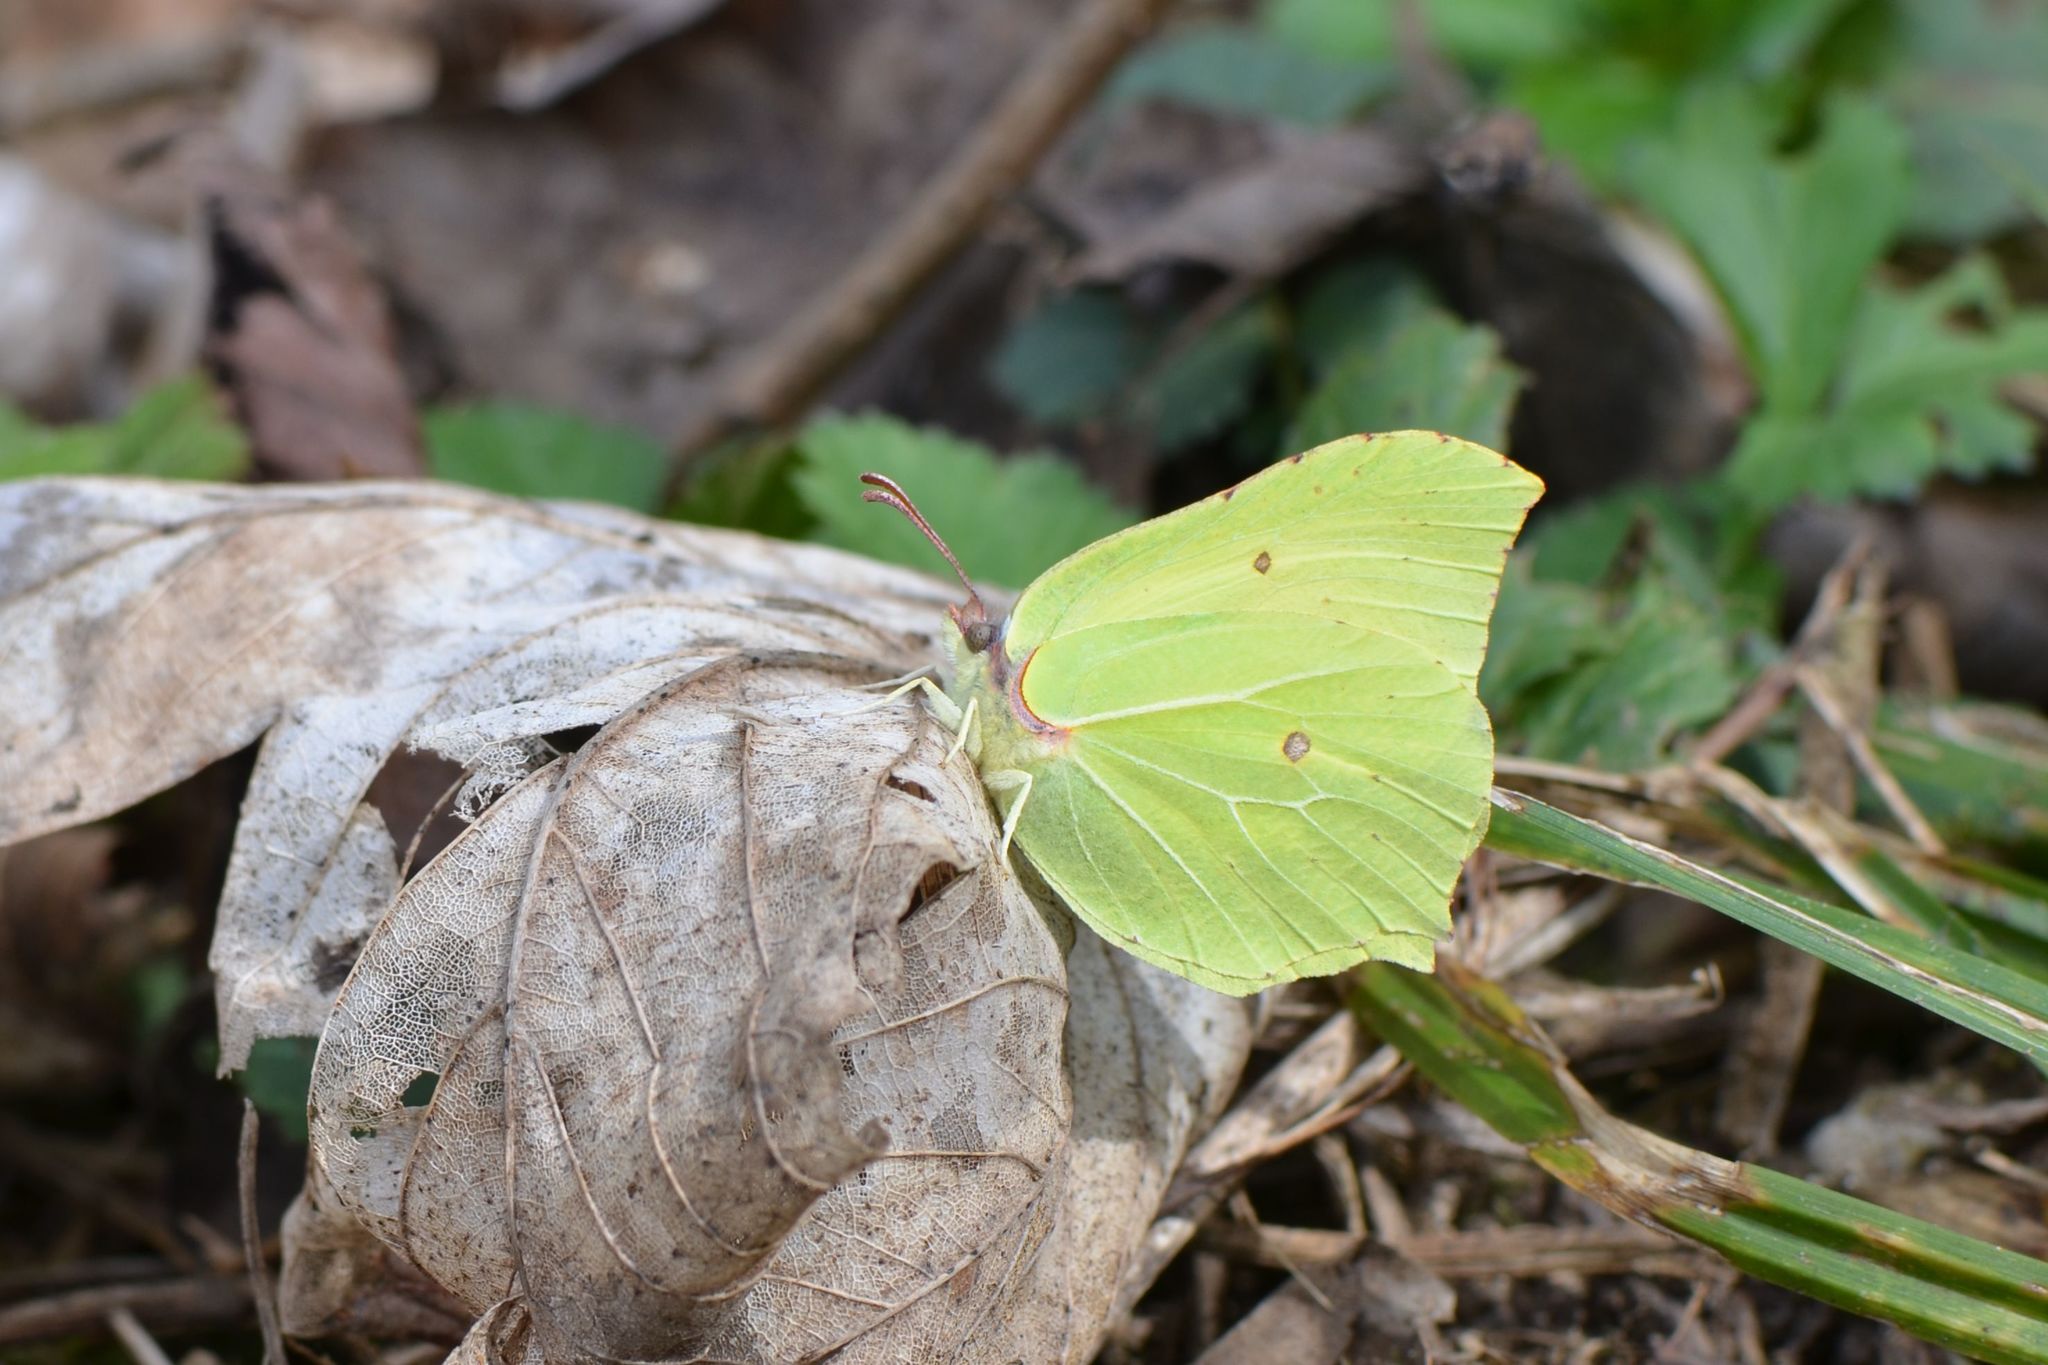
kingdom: Animalia
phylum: Arthropoda
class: Insecta
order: Lepidoptera
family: Pieridae
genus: Gonepteryx
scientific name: Gonepteryx rhamni
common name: Brimstone
